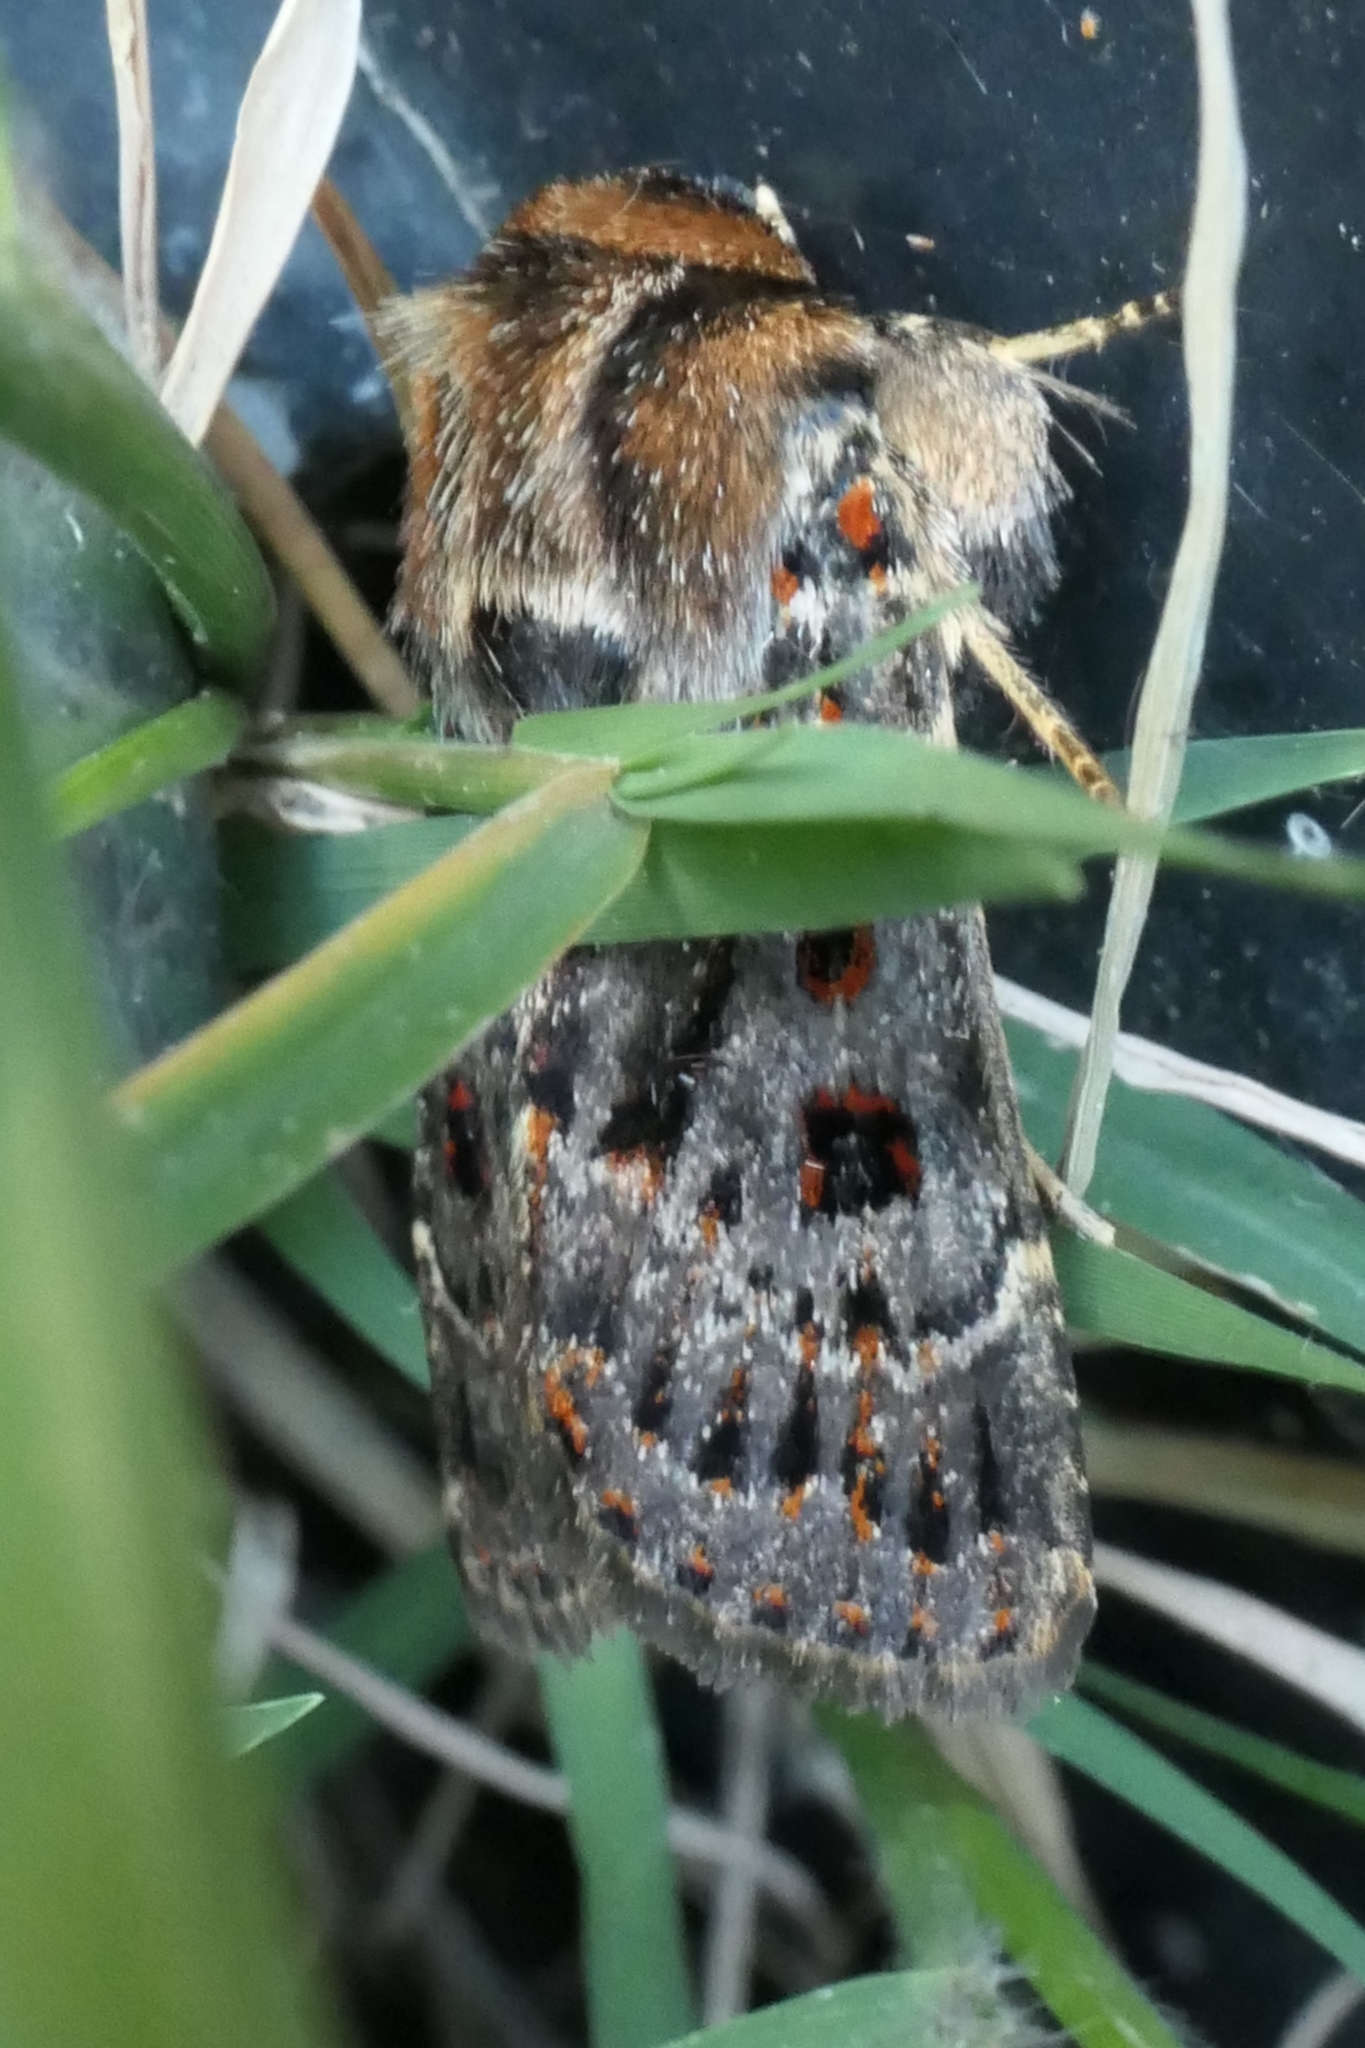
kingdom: Animalia
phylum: Arthropoda
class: Insecta
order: Lepidoptera
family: Noctuidae
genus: Proteuxoa
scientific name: Proteuxoa sanguinipuncta
